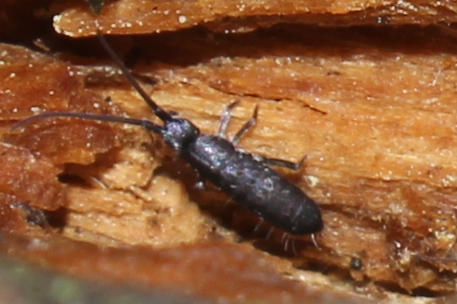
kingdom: Animalia
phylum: Arthropoda
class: Collembola
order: Entomobryomorpha
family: Tomoceridae
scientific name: Tomoceridae
